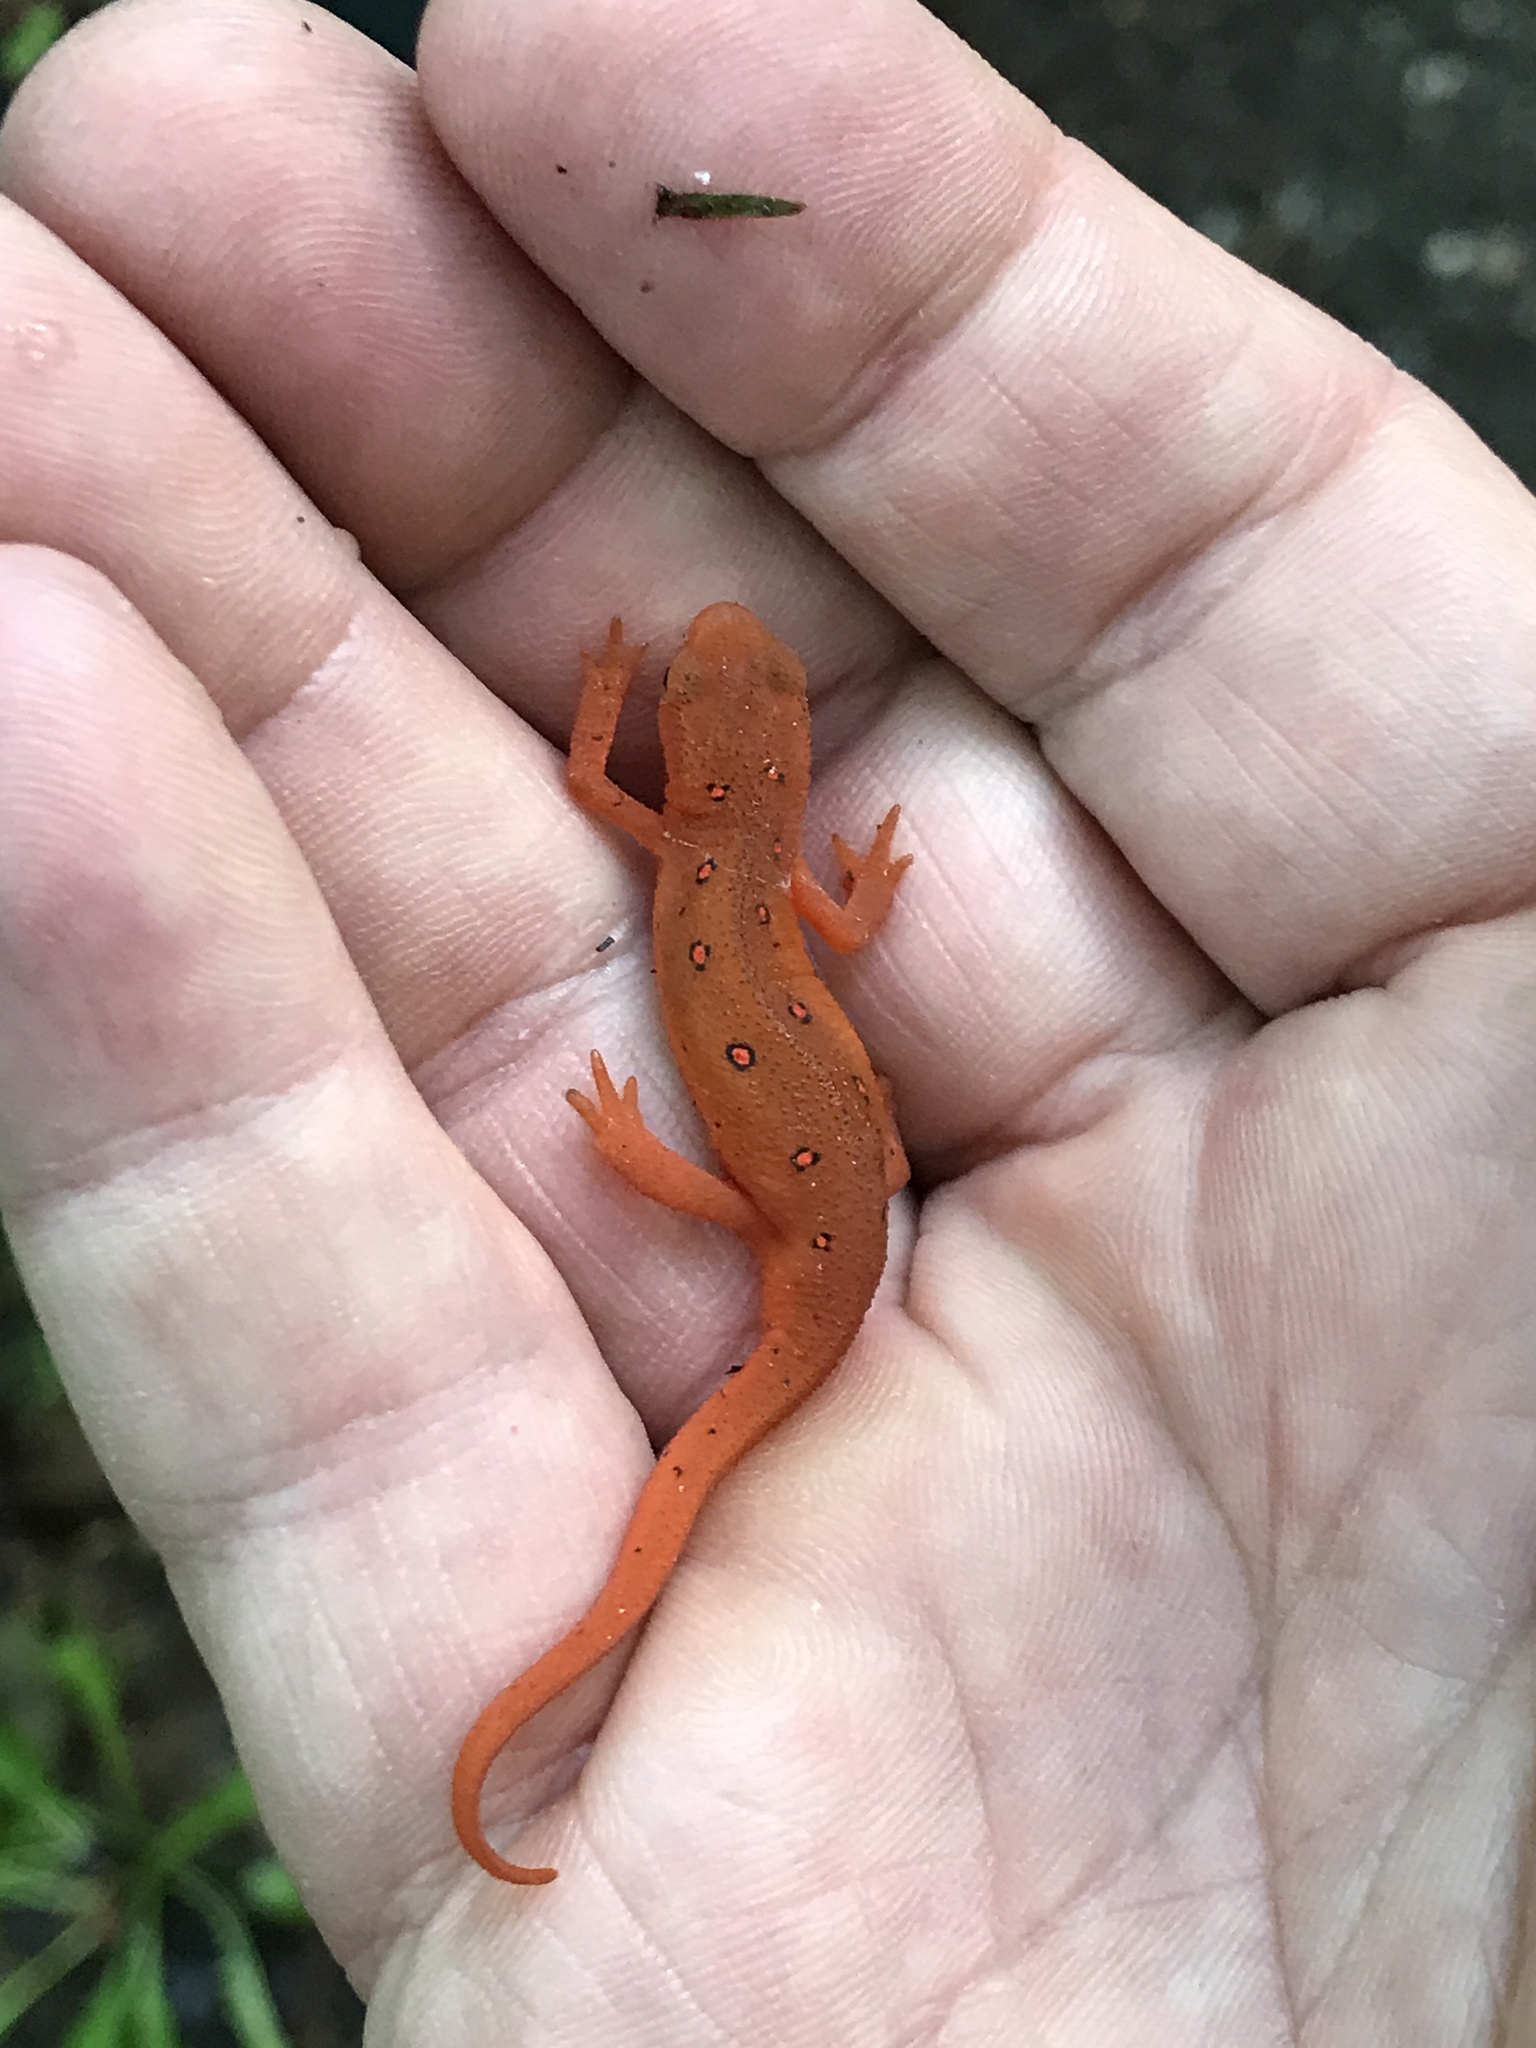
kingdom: Animalia
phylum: Chordata
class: Amphibia
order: Caudata
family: Salamandridae
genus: Notophthalmus
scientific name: Notophthalmus viridescens
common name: Eastern newt
